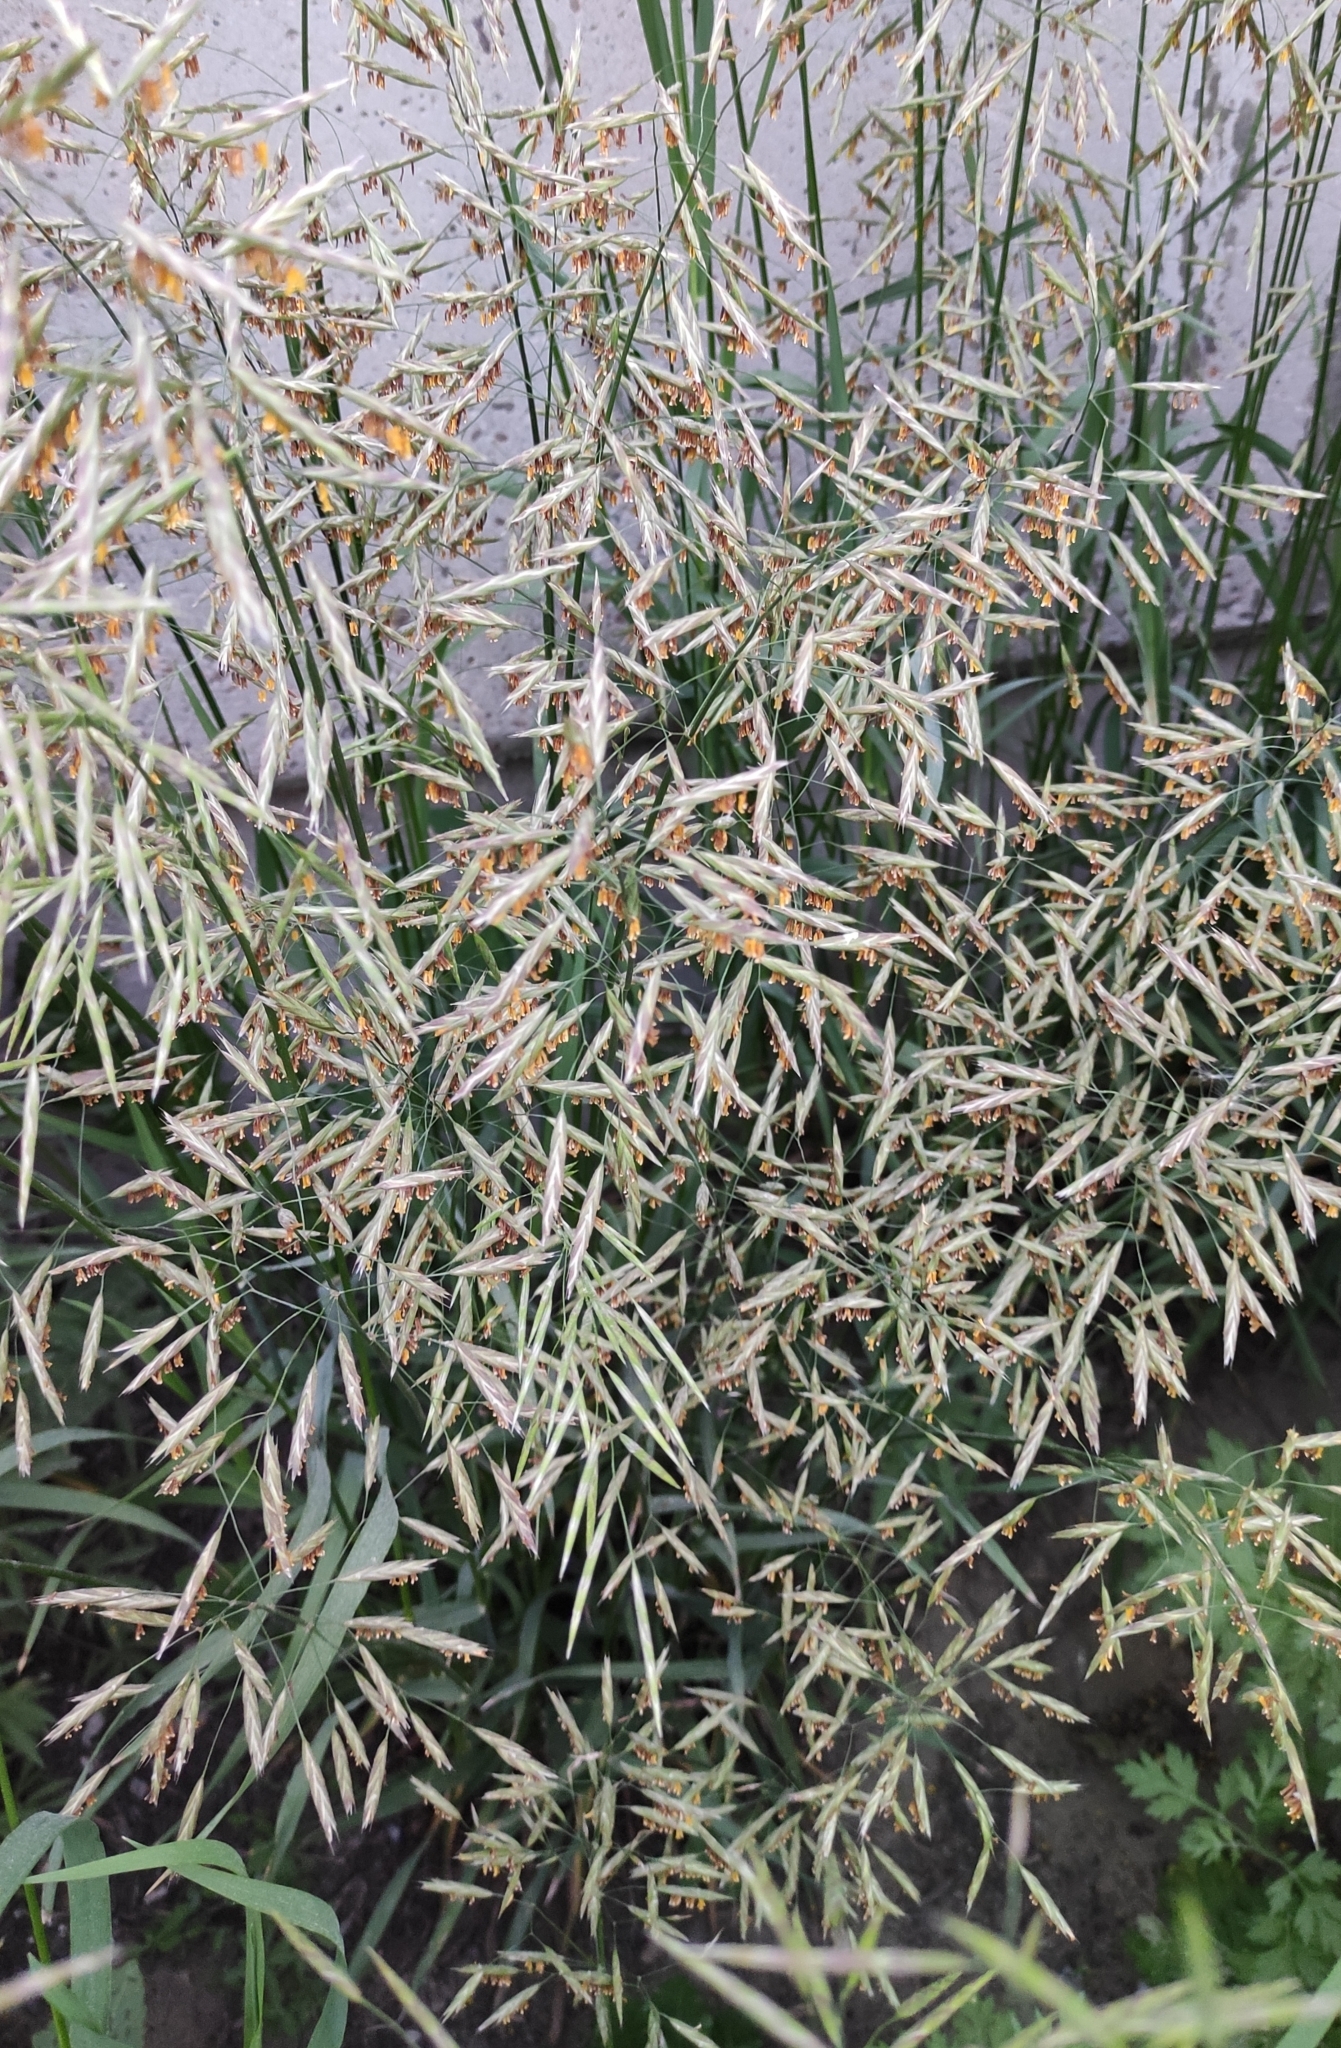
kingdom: Plantae
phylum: Tracheophyta
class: Liliopsida
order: Poales
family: Poaceae
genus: Bromus
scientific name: Bromus inermis
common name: Smooth brome
